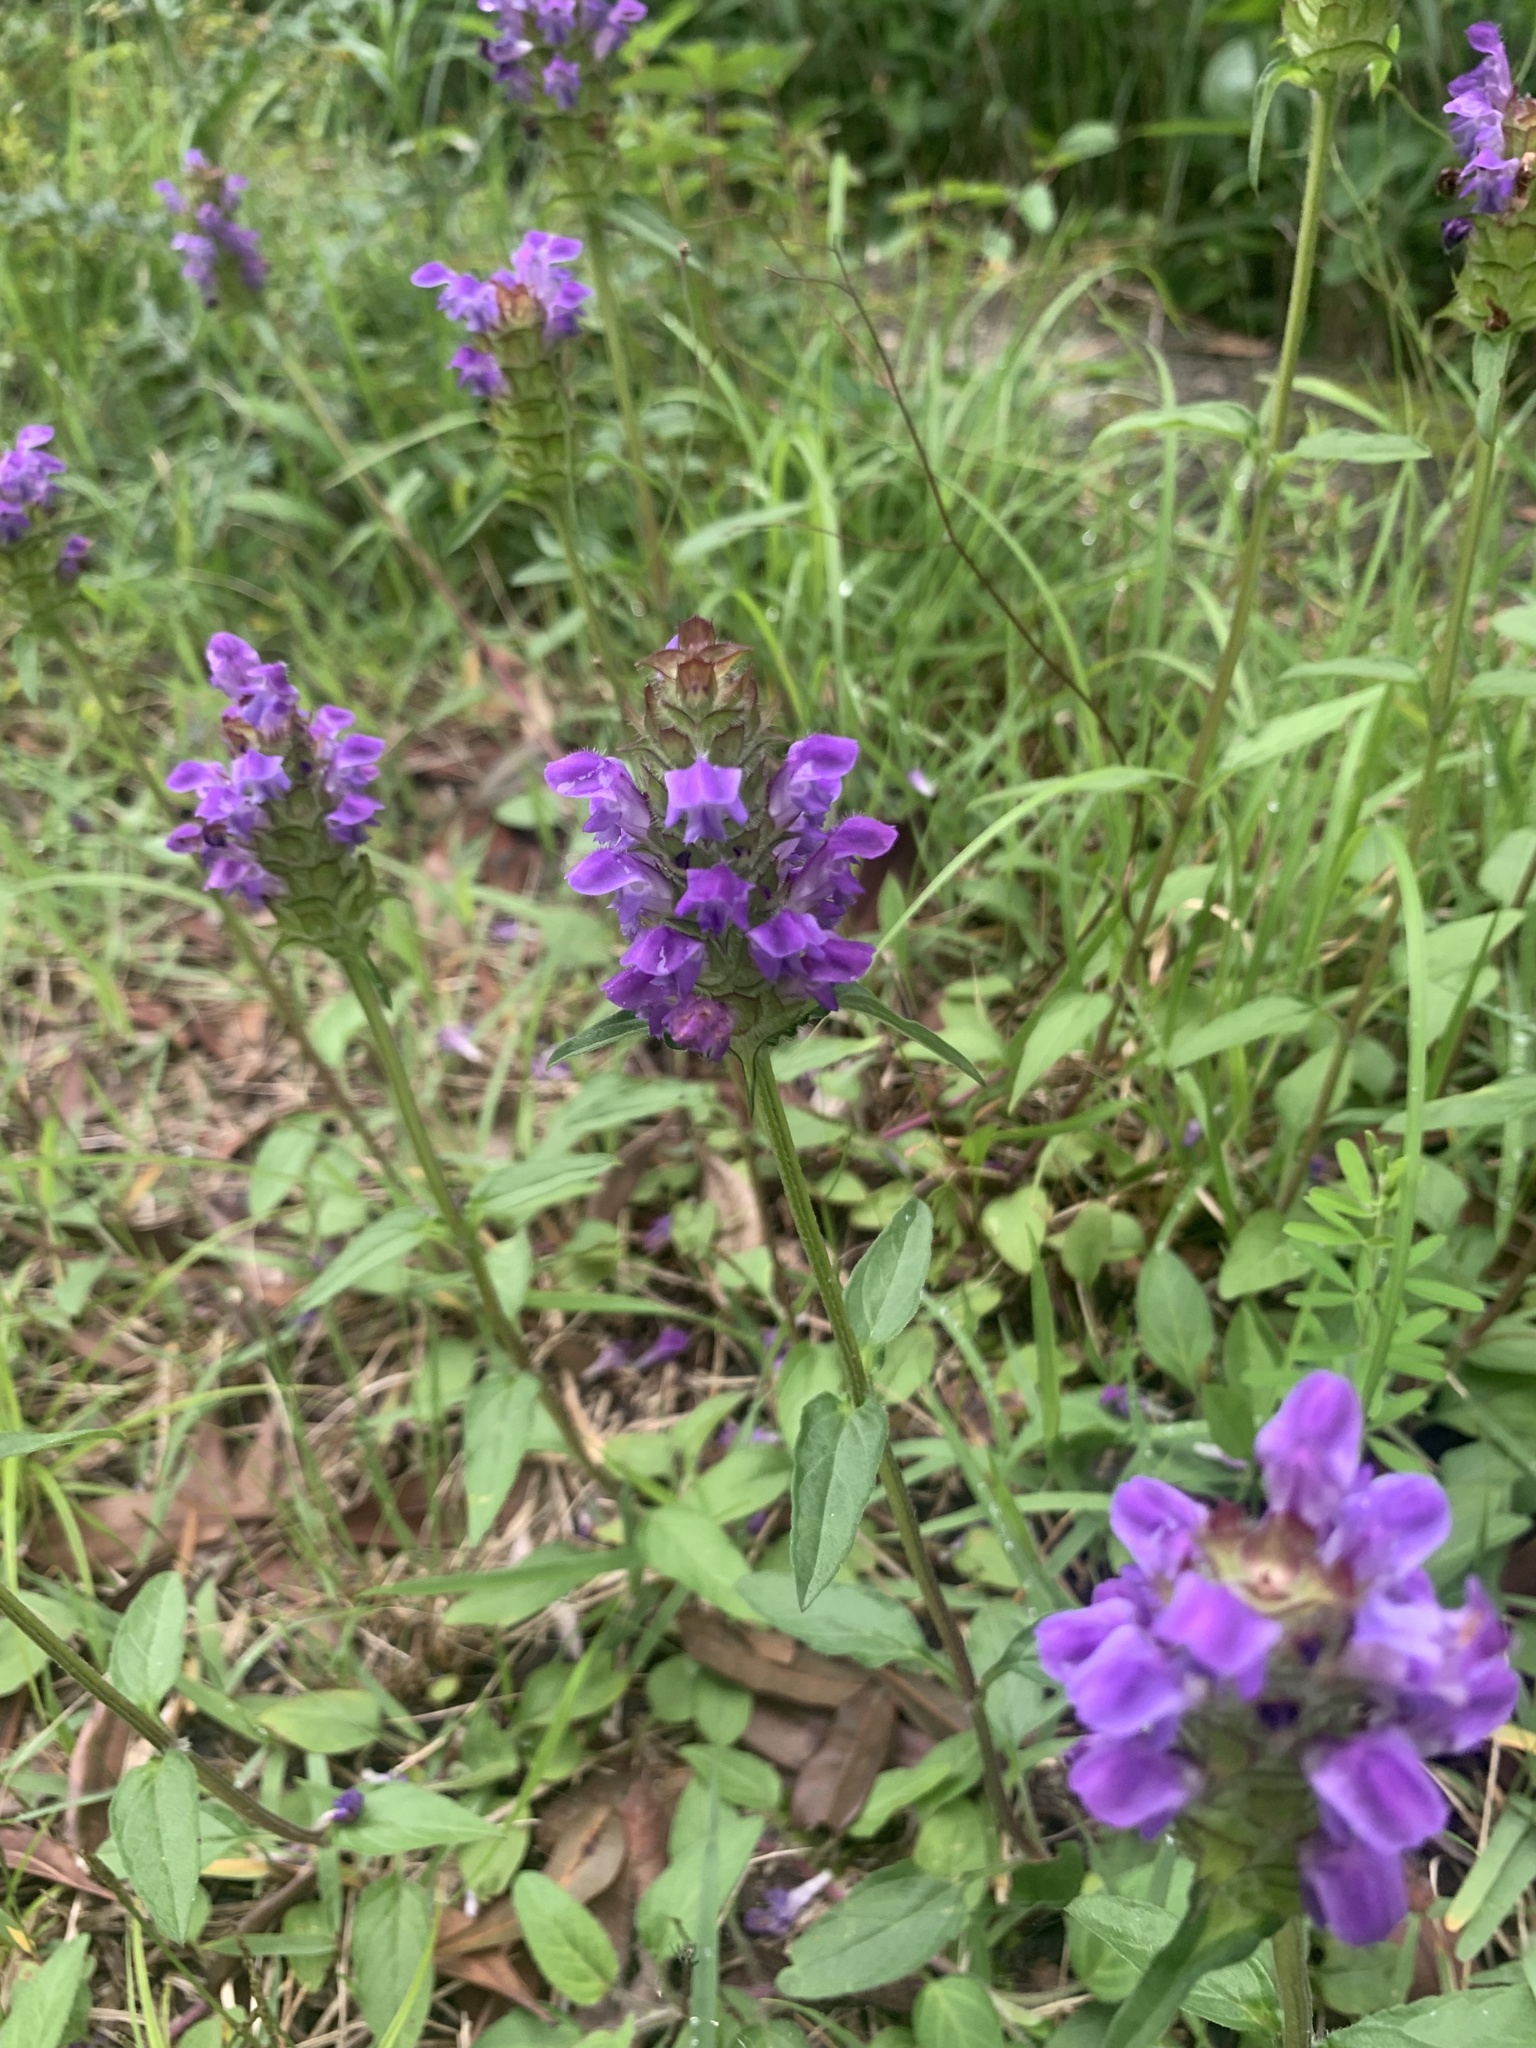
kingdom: Plantae
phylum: Tracheophyta
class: Magnoliopsida
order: Lamiales
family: Lamiaceae
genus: Prunella
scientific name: Prunella vulgaris
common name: Heal-all
